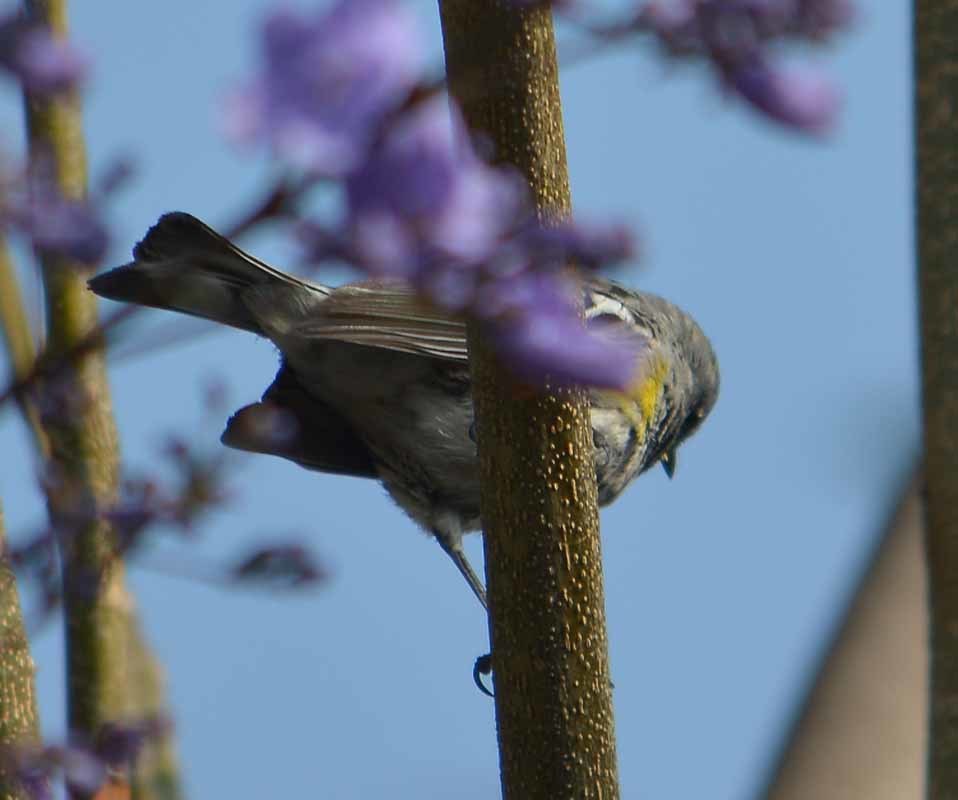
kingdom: Animalia
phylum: Chordata
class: Aves
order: Passeriformes
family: Parulidae
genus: Setophaga
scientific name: Setophaga coronata
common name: Myrtle warbler
